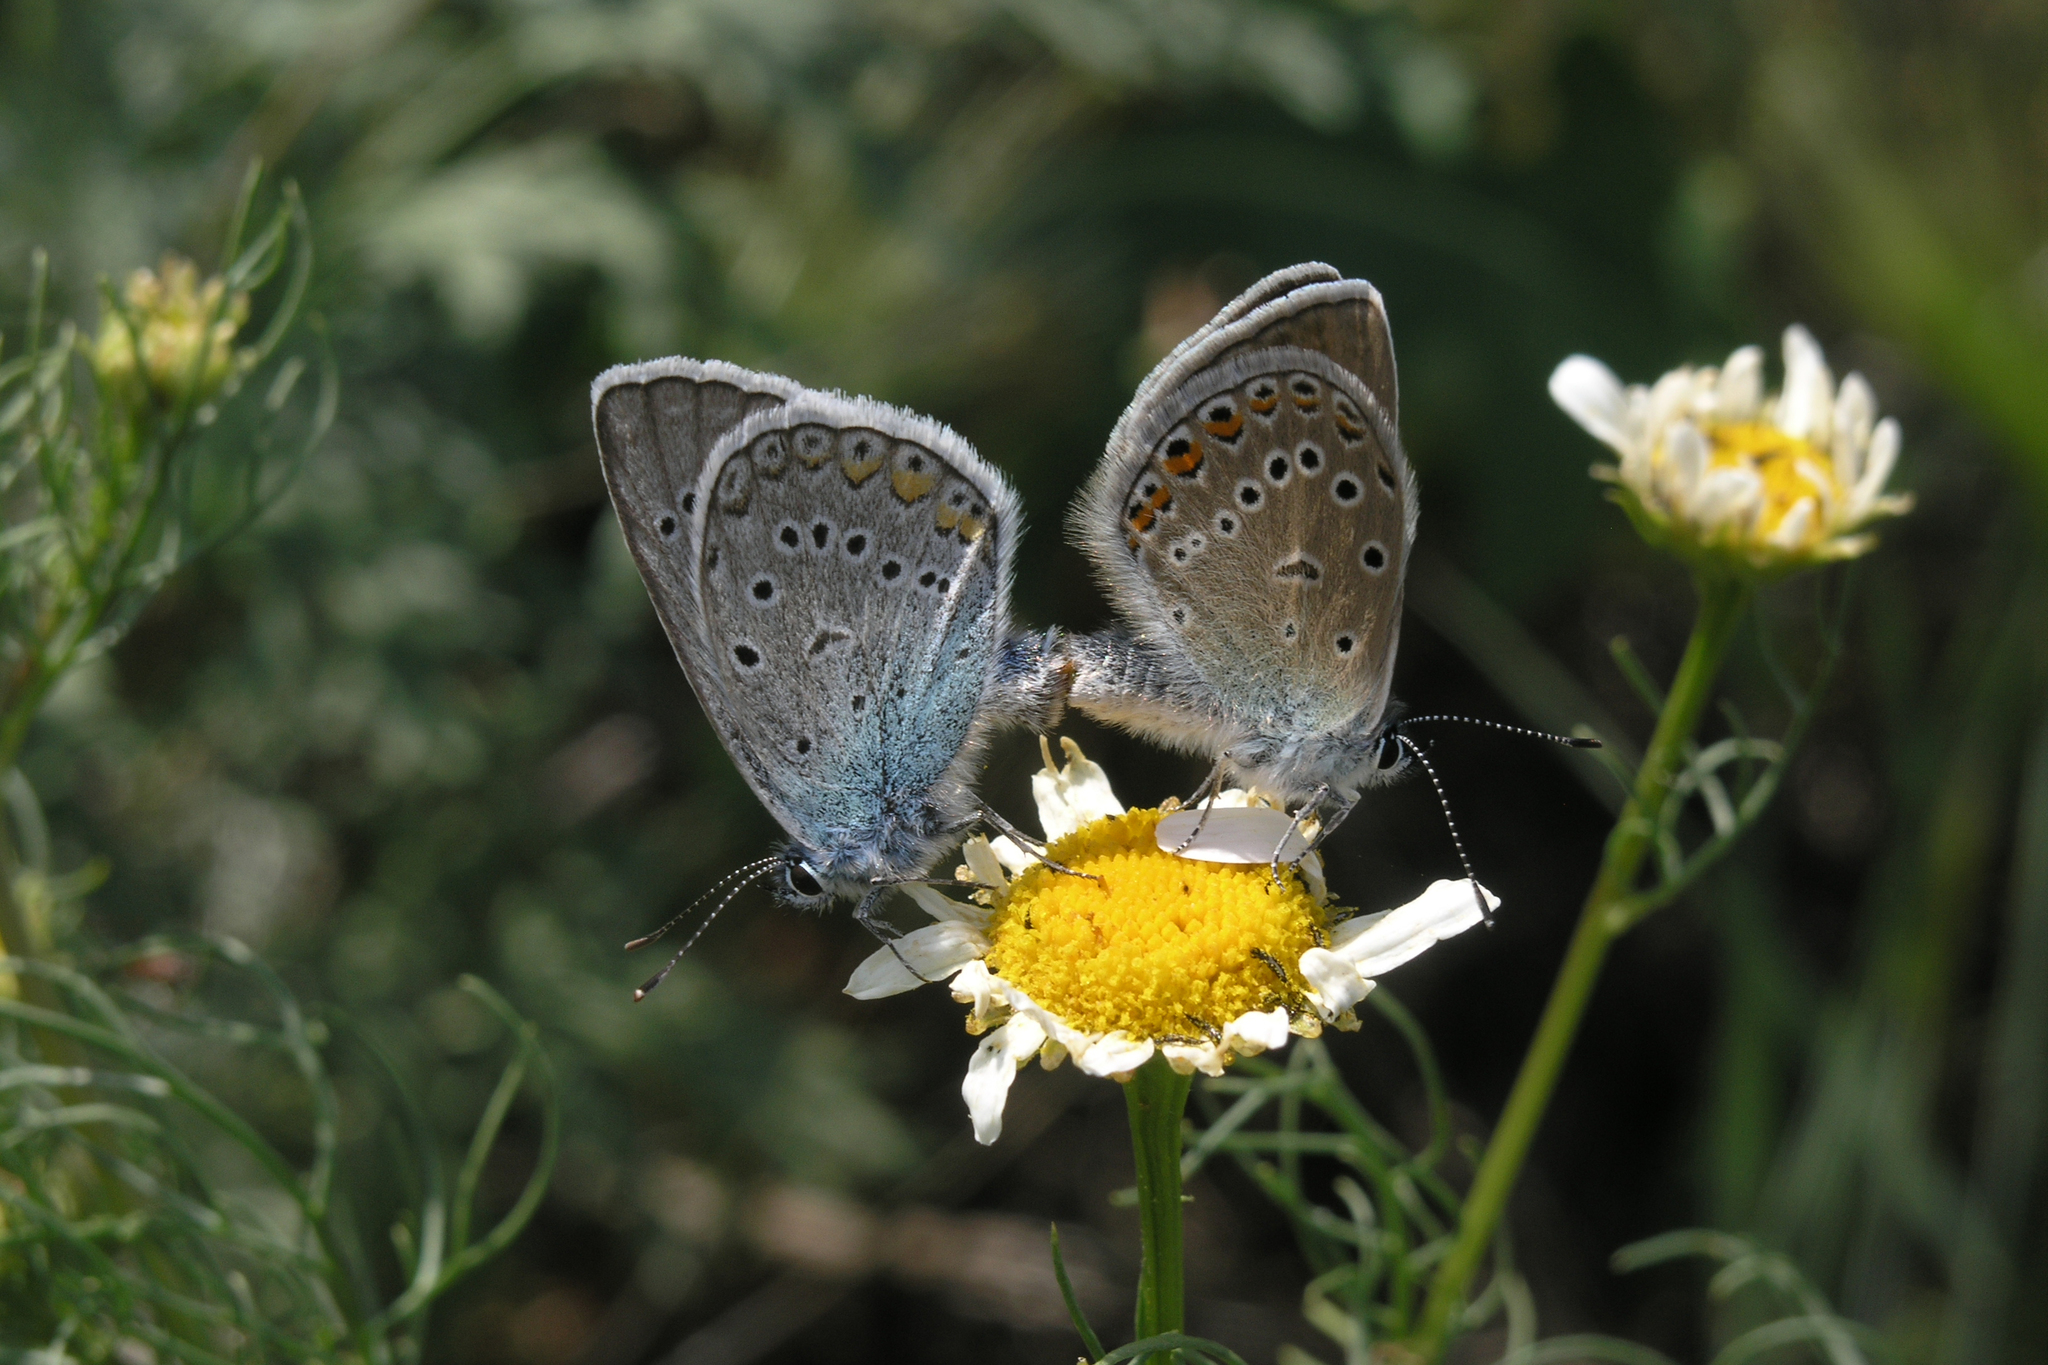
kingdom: Animalia
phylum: Arthropoda
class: Insecta
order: Lepidoptera
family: Lycaenidae
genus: Plebejus
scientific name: Plebejus amanda
